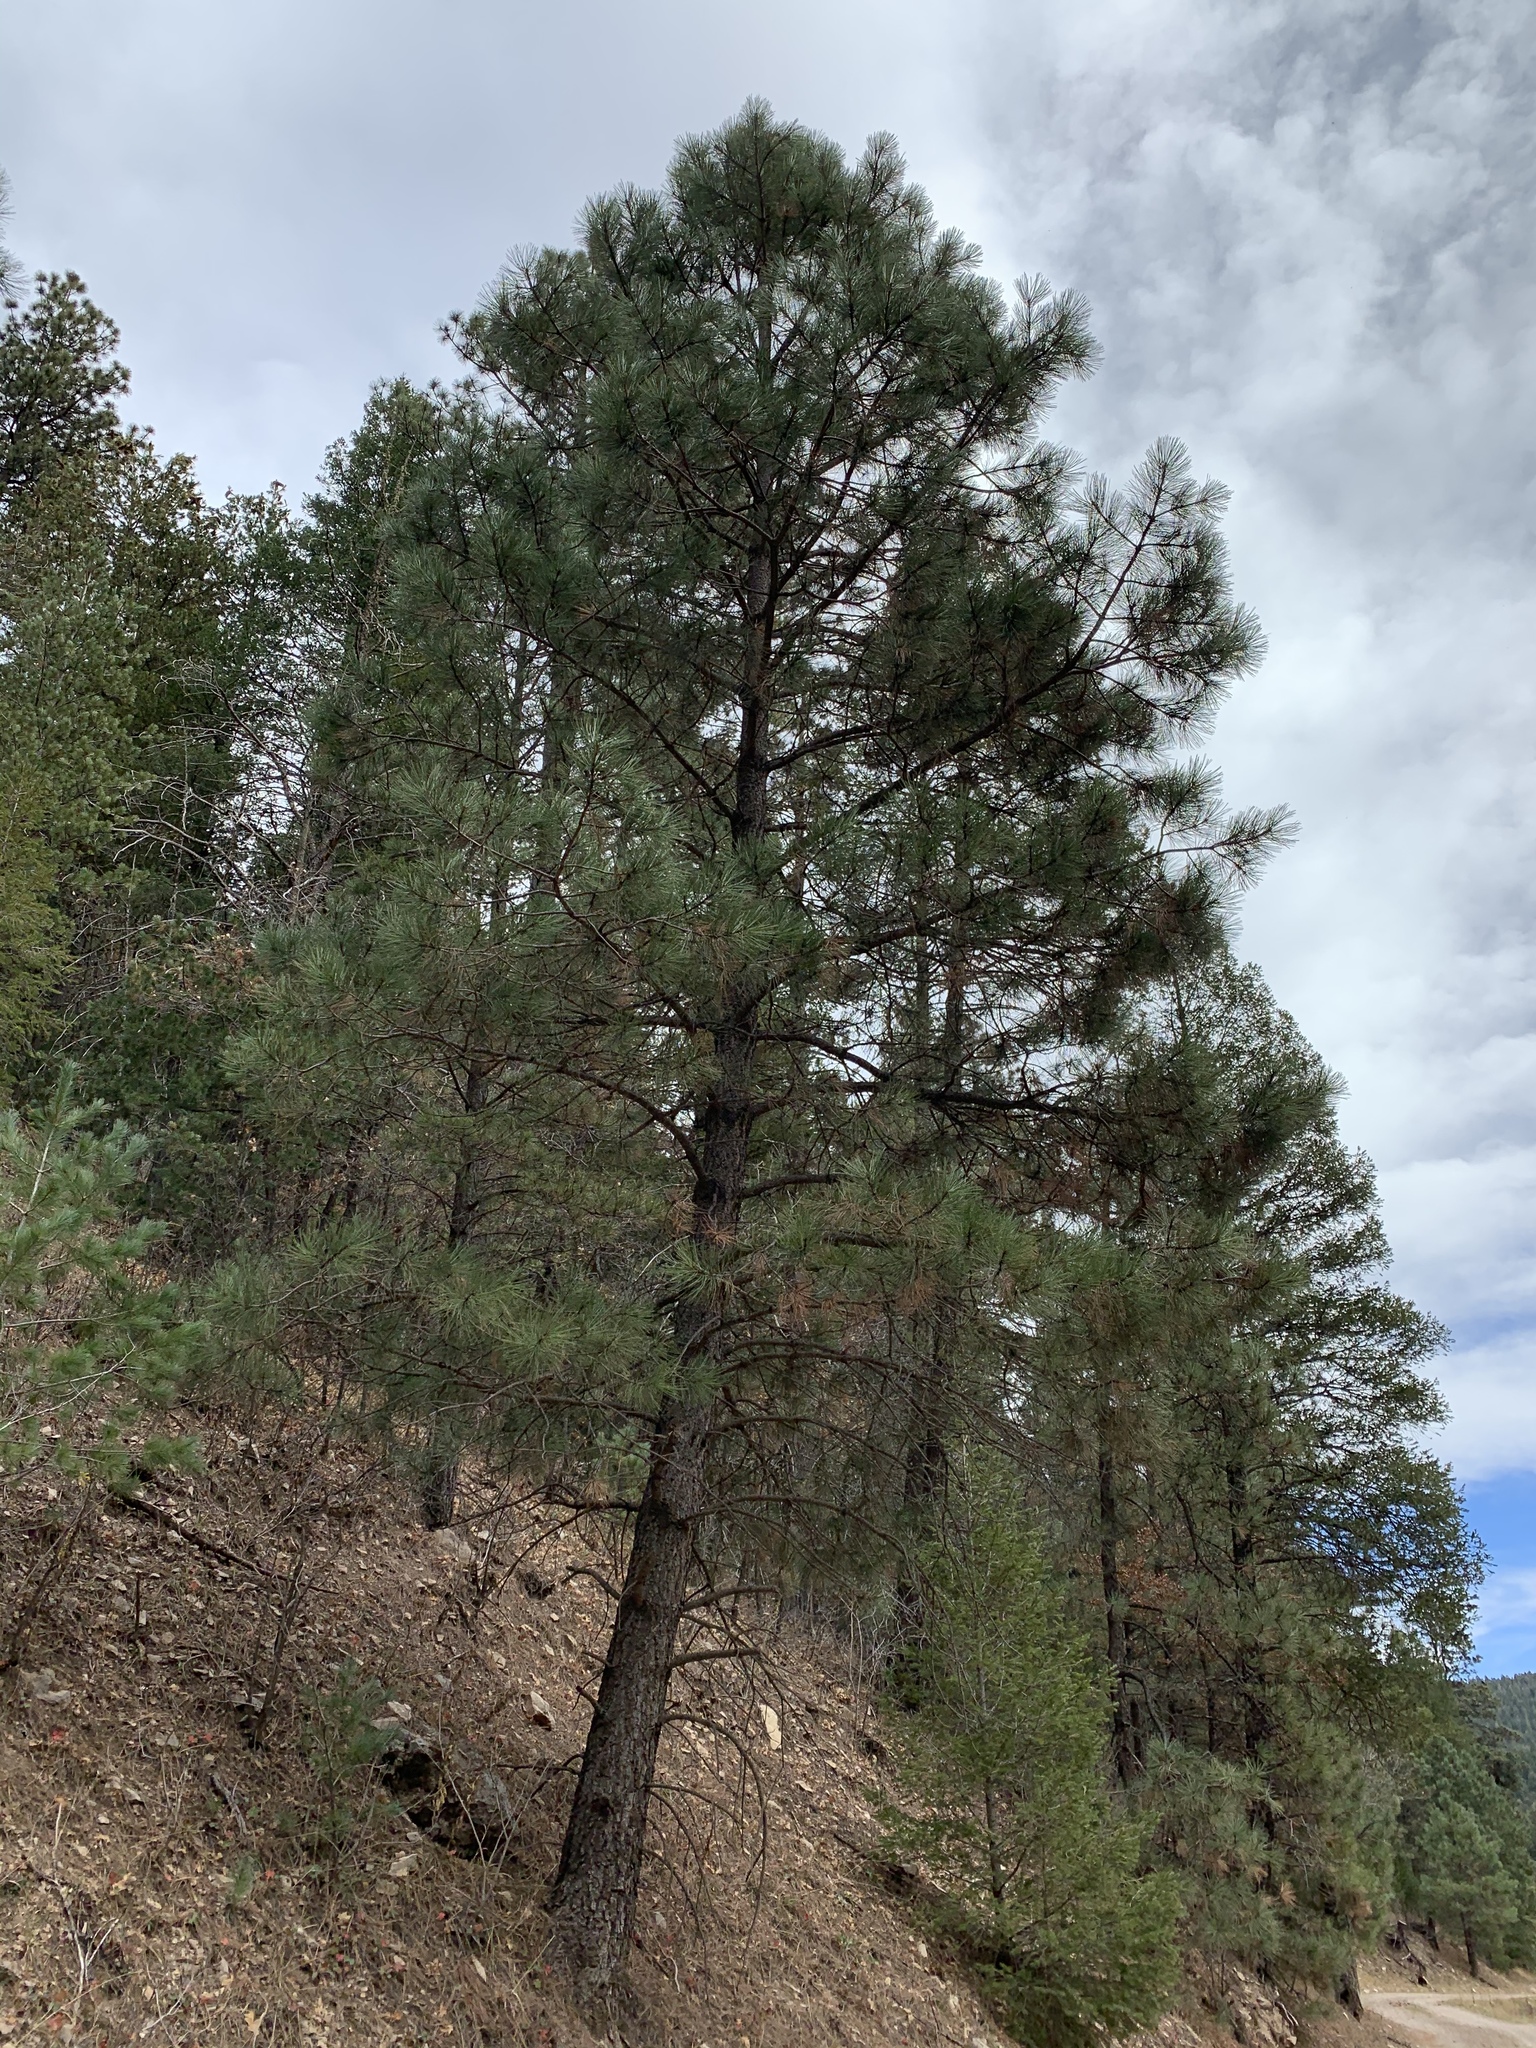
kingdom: Plantae
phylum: Tracheophyta
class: Pinopsida
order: Pinales
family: Pinaceae
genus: Pinus
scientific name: Pinus ponderosa
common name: Western yellow-pine
